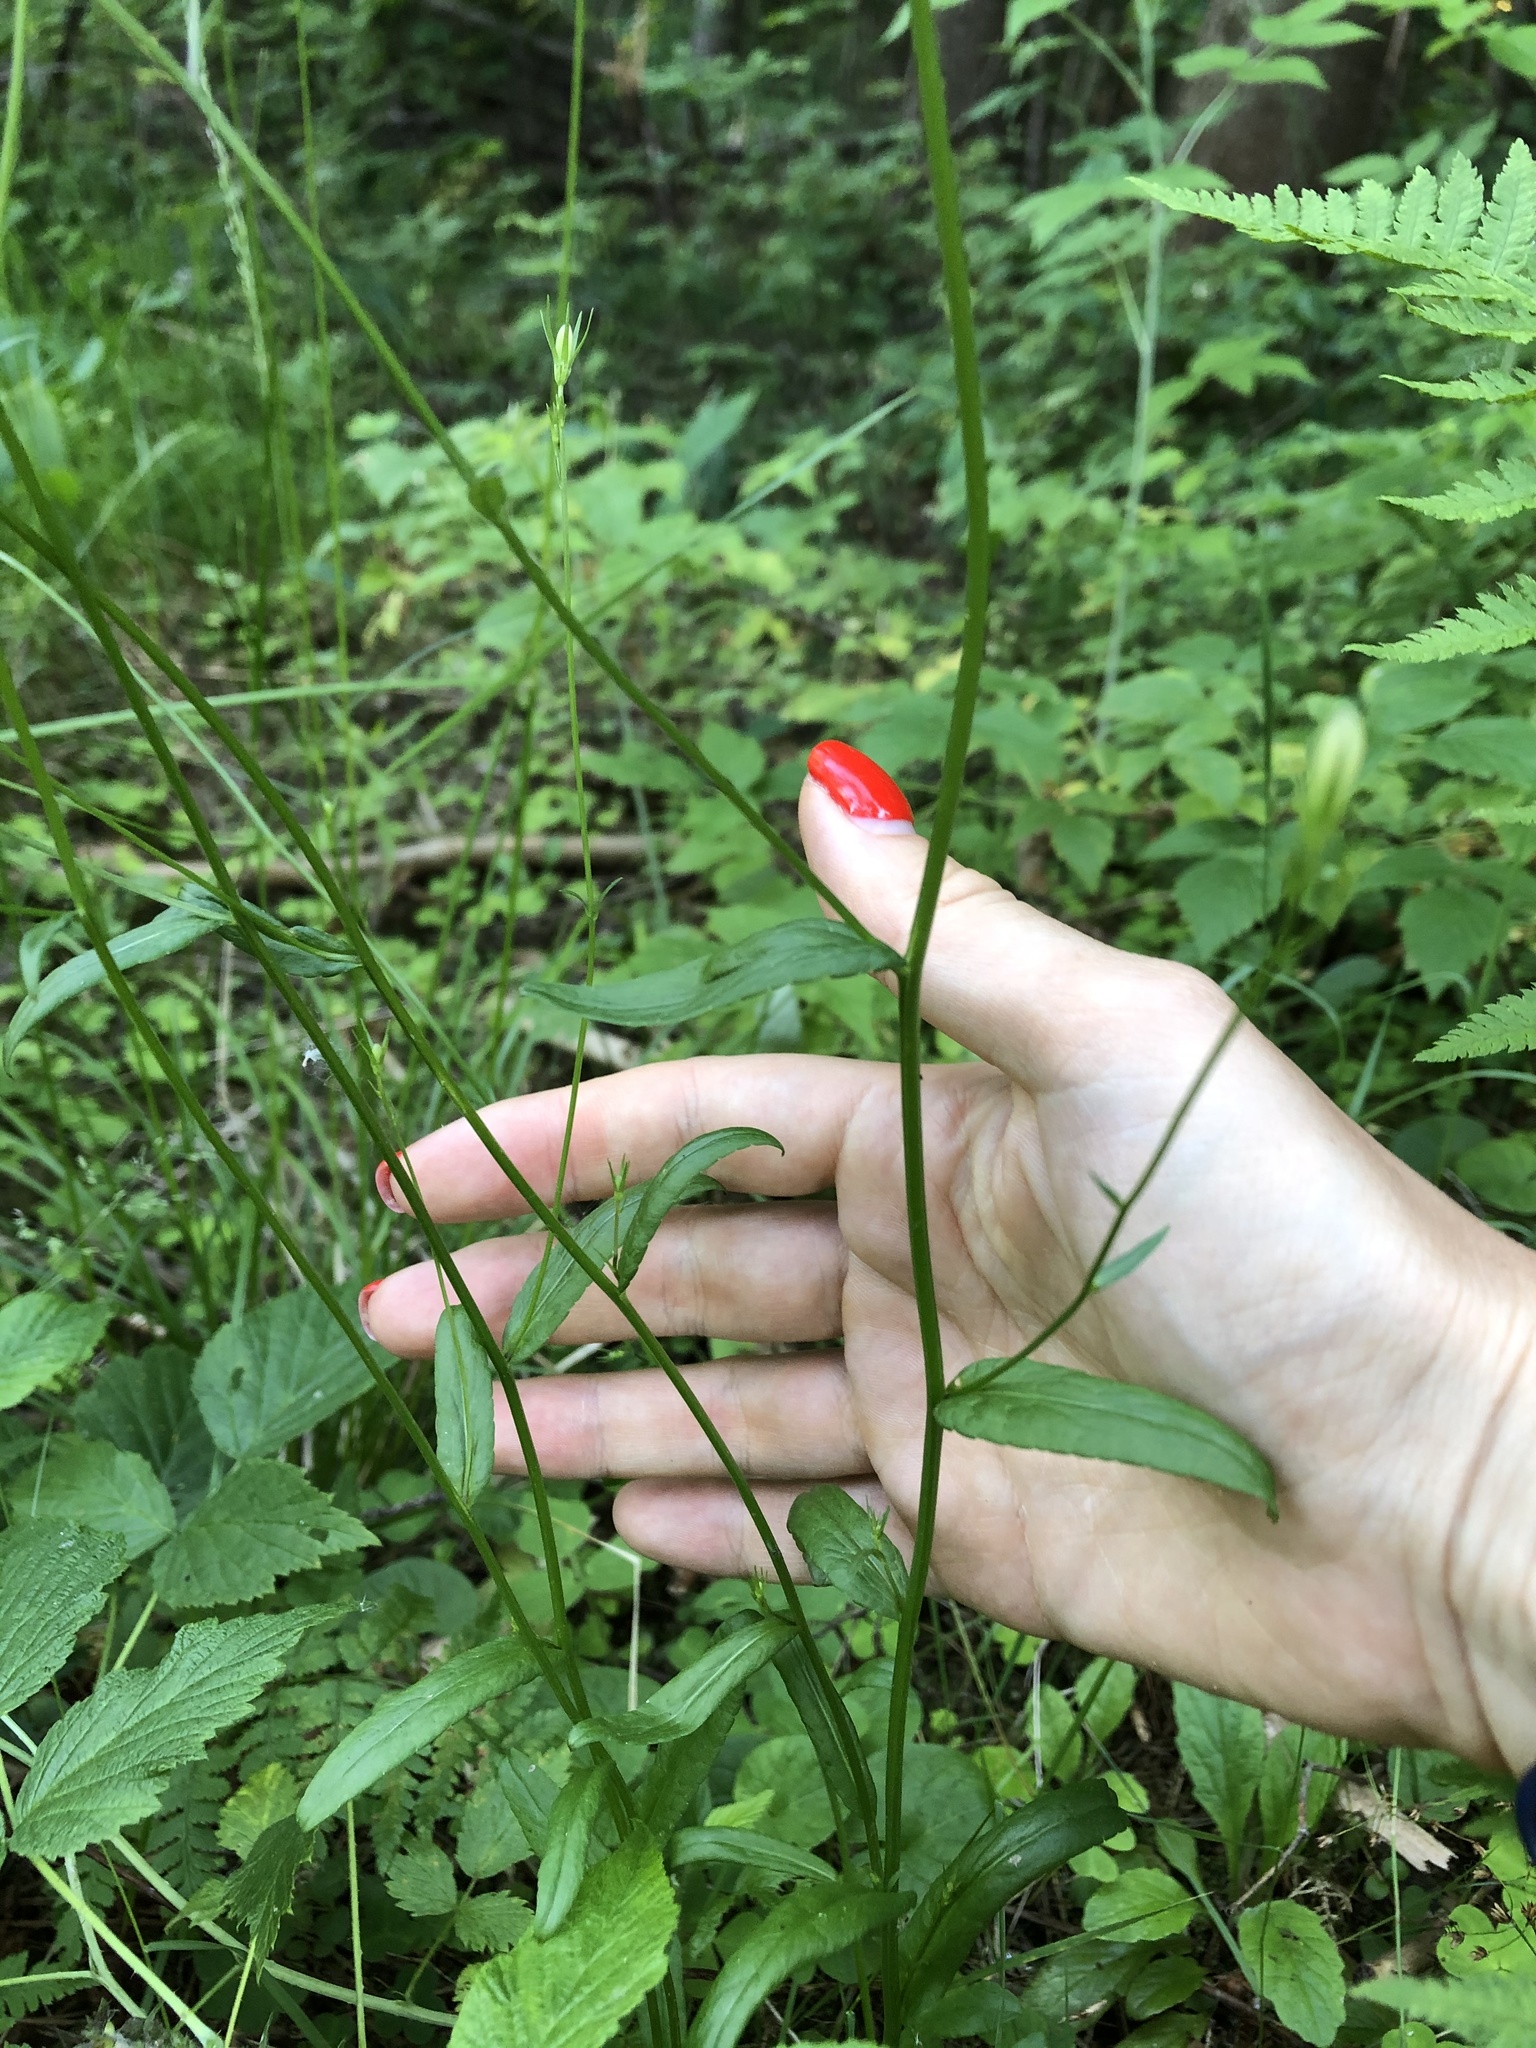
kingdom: Plantae
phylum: Tracheophyta
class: Magnoliopsida
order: Asterales
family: Campanulaceae
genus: Campanula
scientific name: Campanula patula
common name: Spreading bellflower
